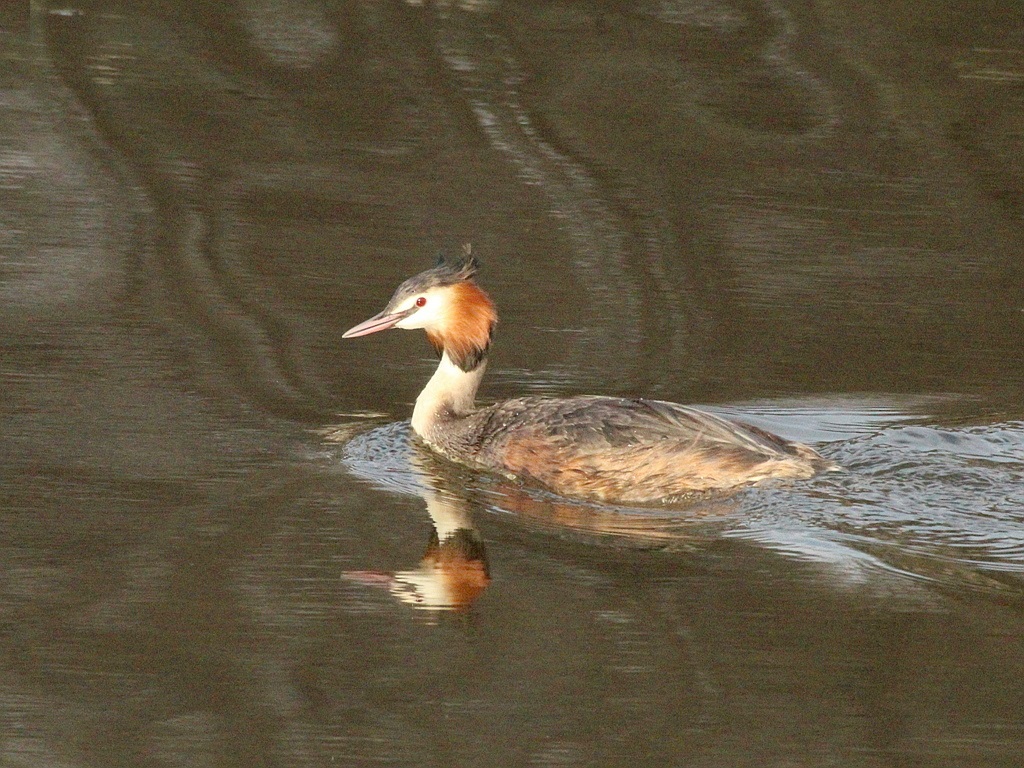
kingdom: Animalia
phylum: Chordata
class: Aves
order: Podicipediformes
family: Podicipedidae
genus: Podiceps
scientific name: Podiceps cristatus
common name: Great crested grebe
